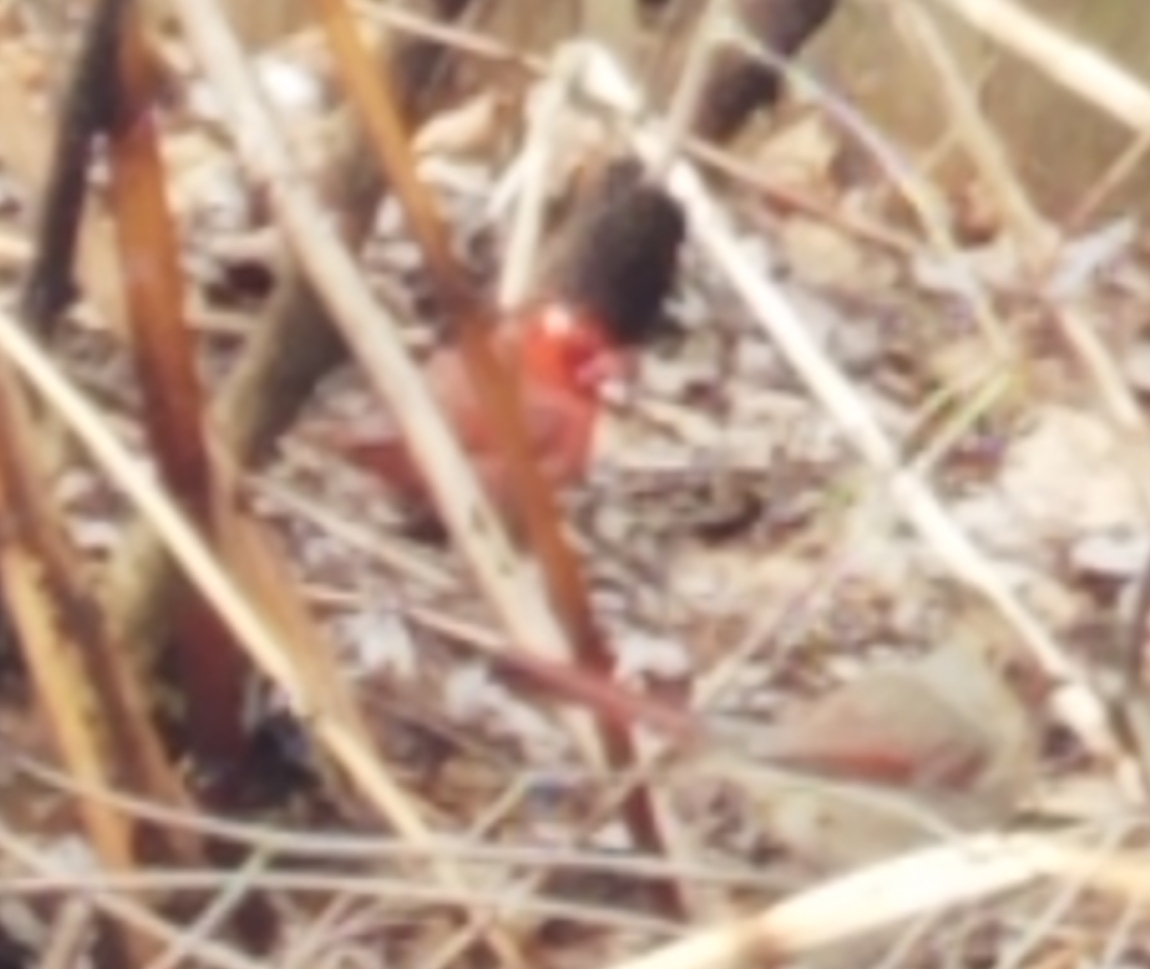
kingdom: Animalia
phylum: Chordata
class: Aves
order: Passeriformes
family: Cardinalidae
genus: Cardinalis
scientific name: Cardinalis cardinalis
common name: Northern cardinal
